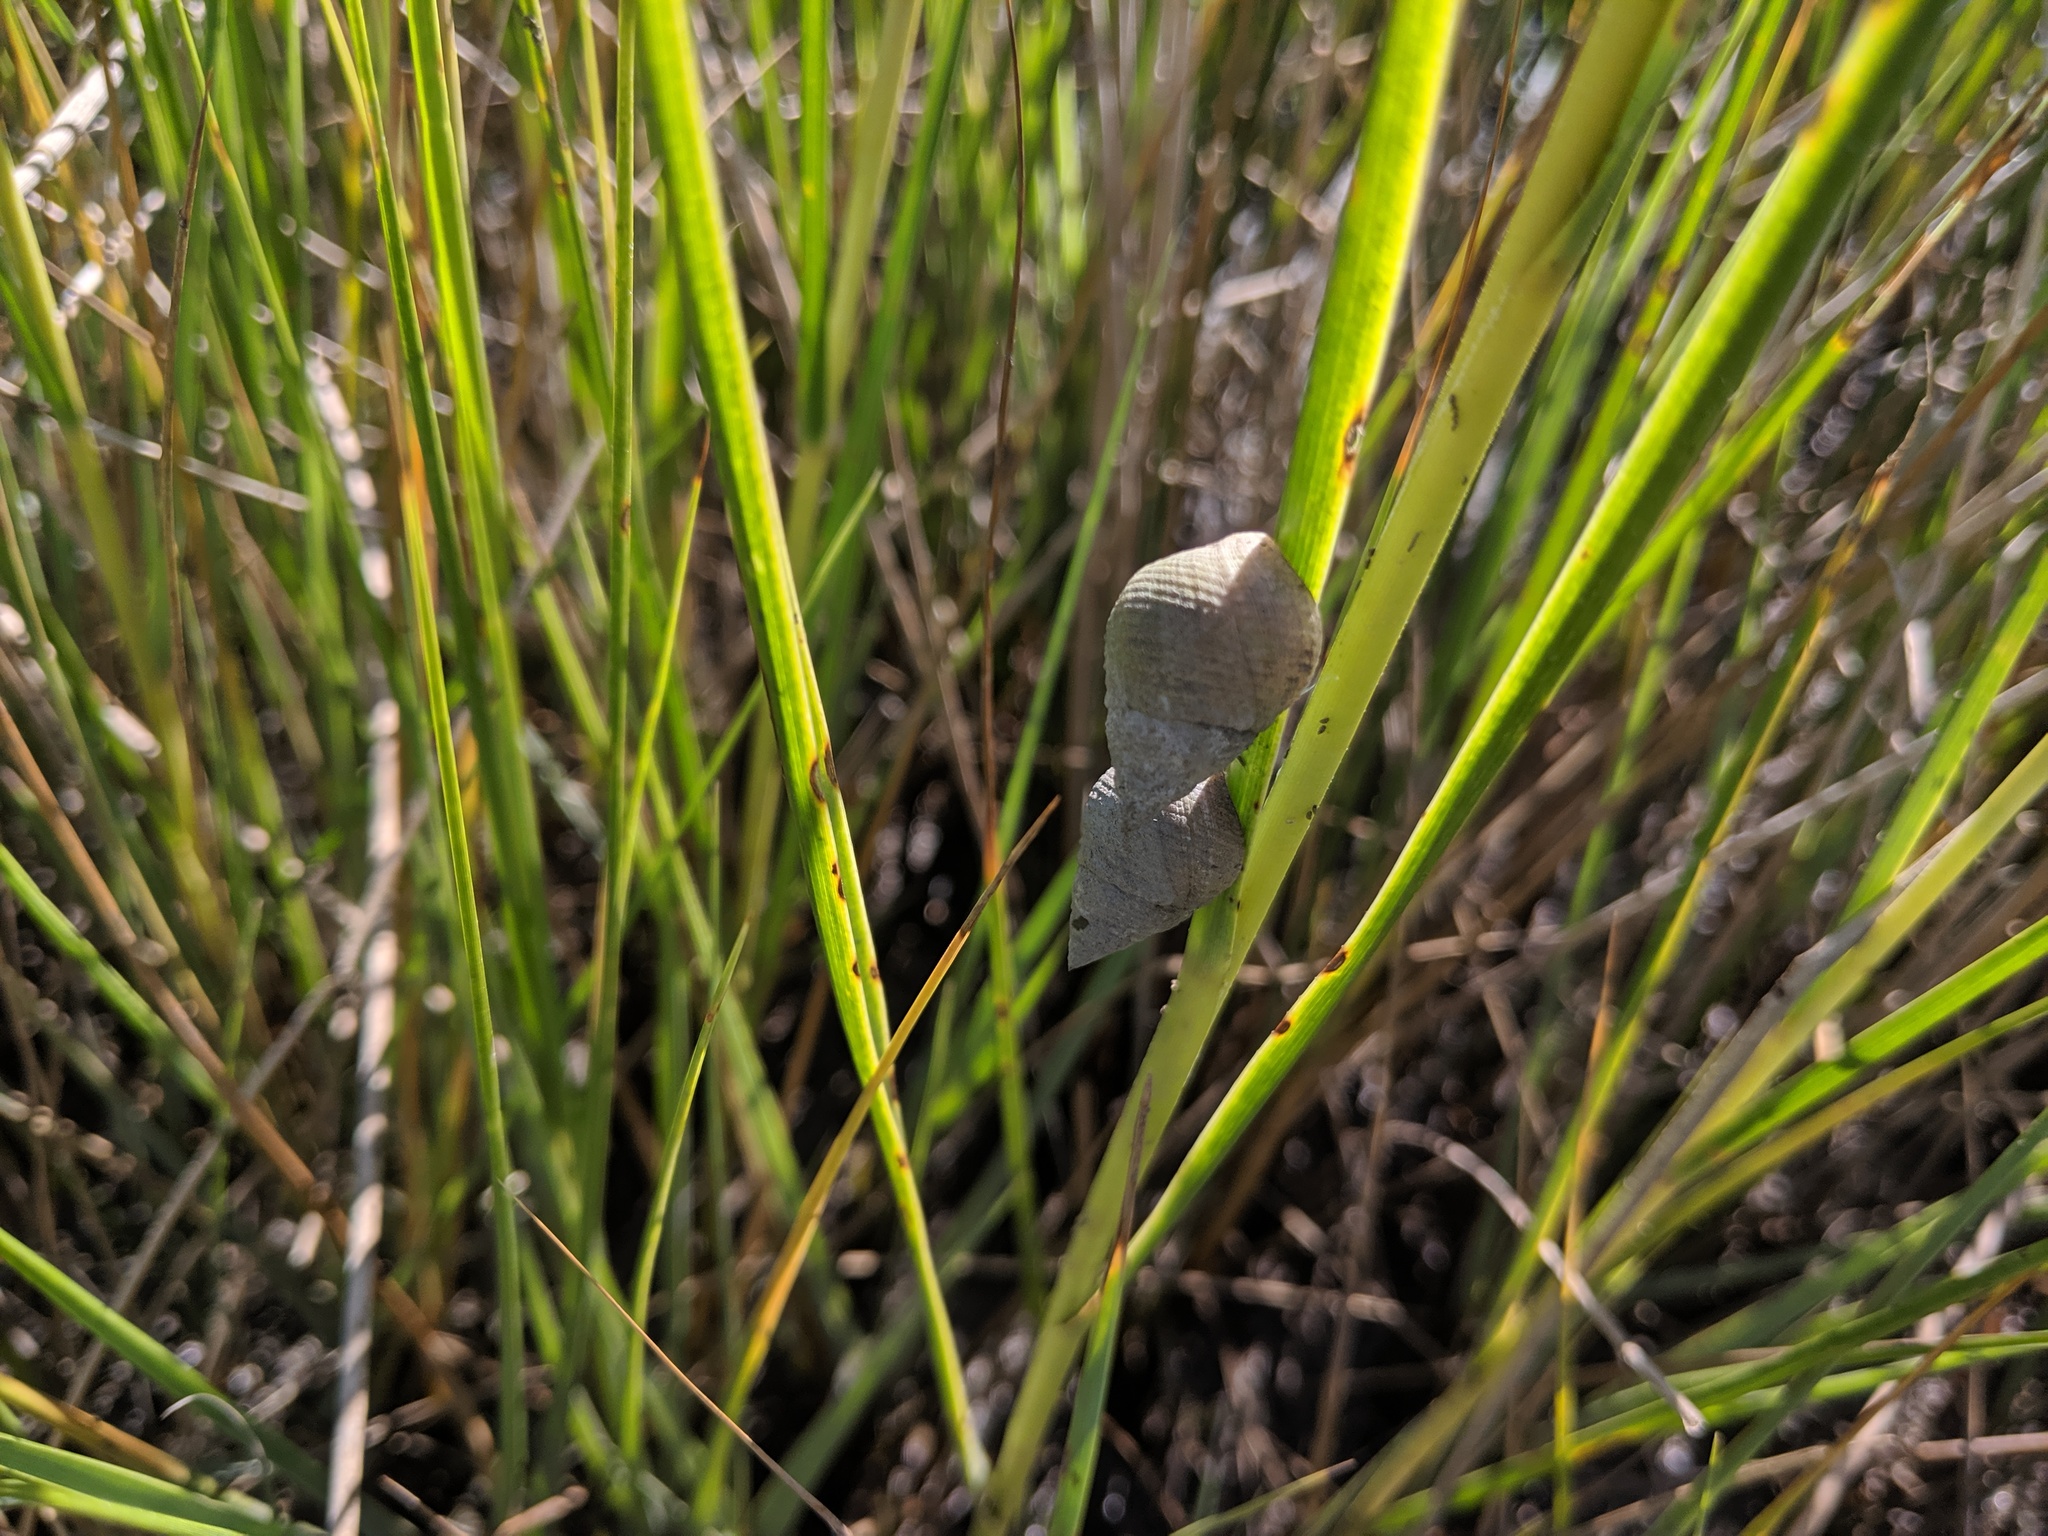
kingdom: Animalia
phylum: Mollusca
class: Gastropoda
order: Littorinimorpha
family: Littorinidae
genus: Littoraria
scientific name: Littoraria irrorata
